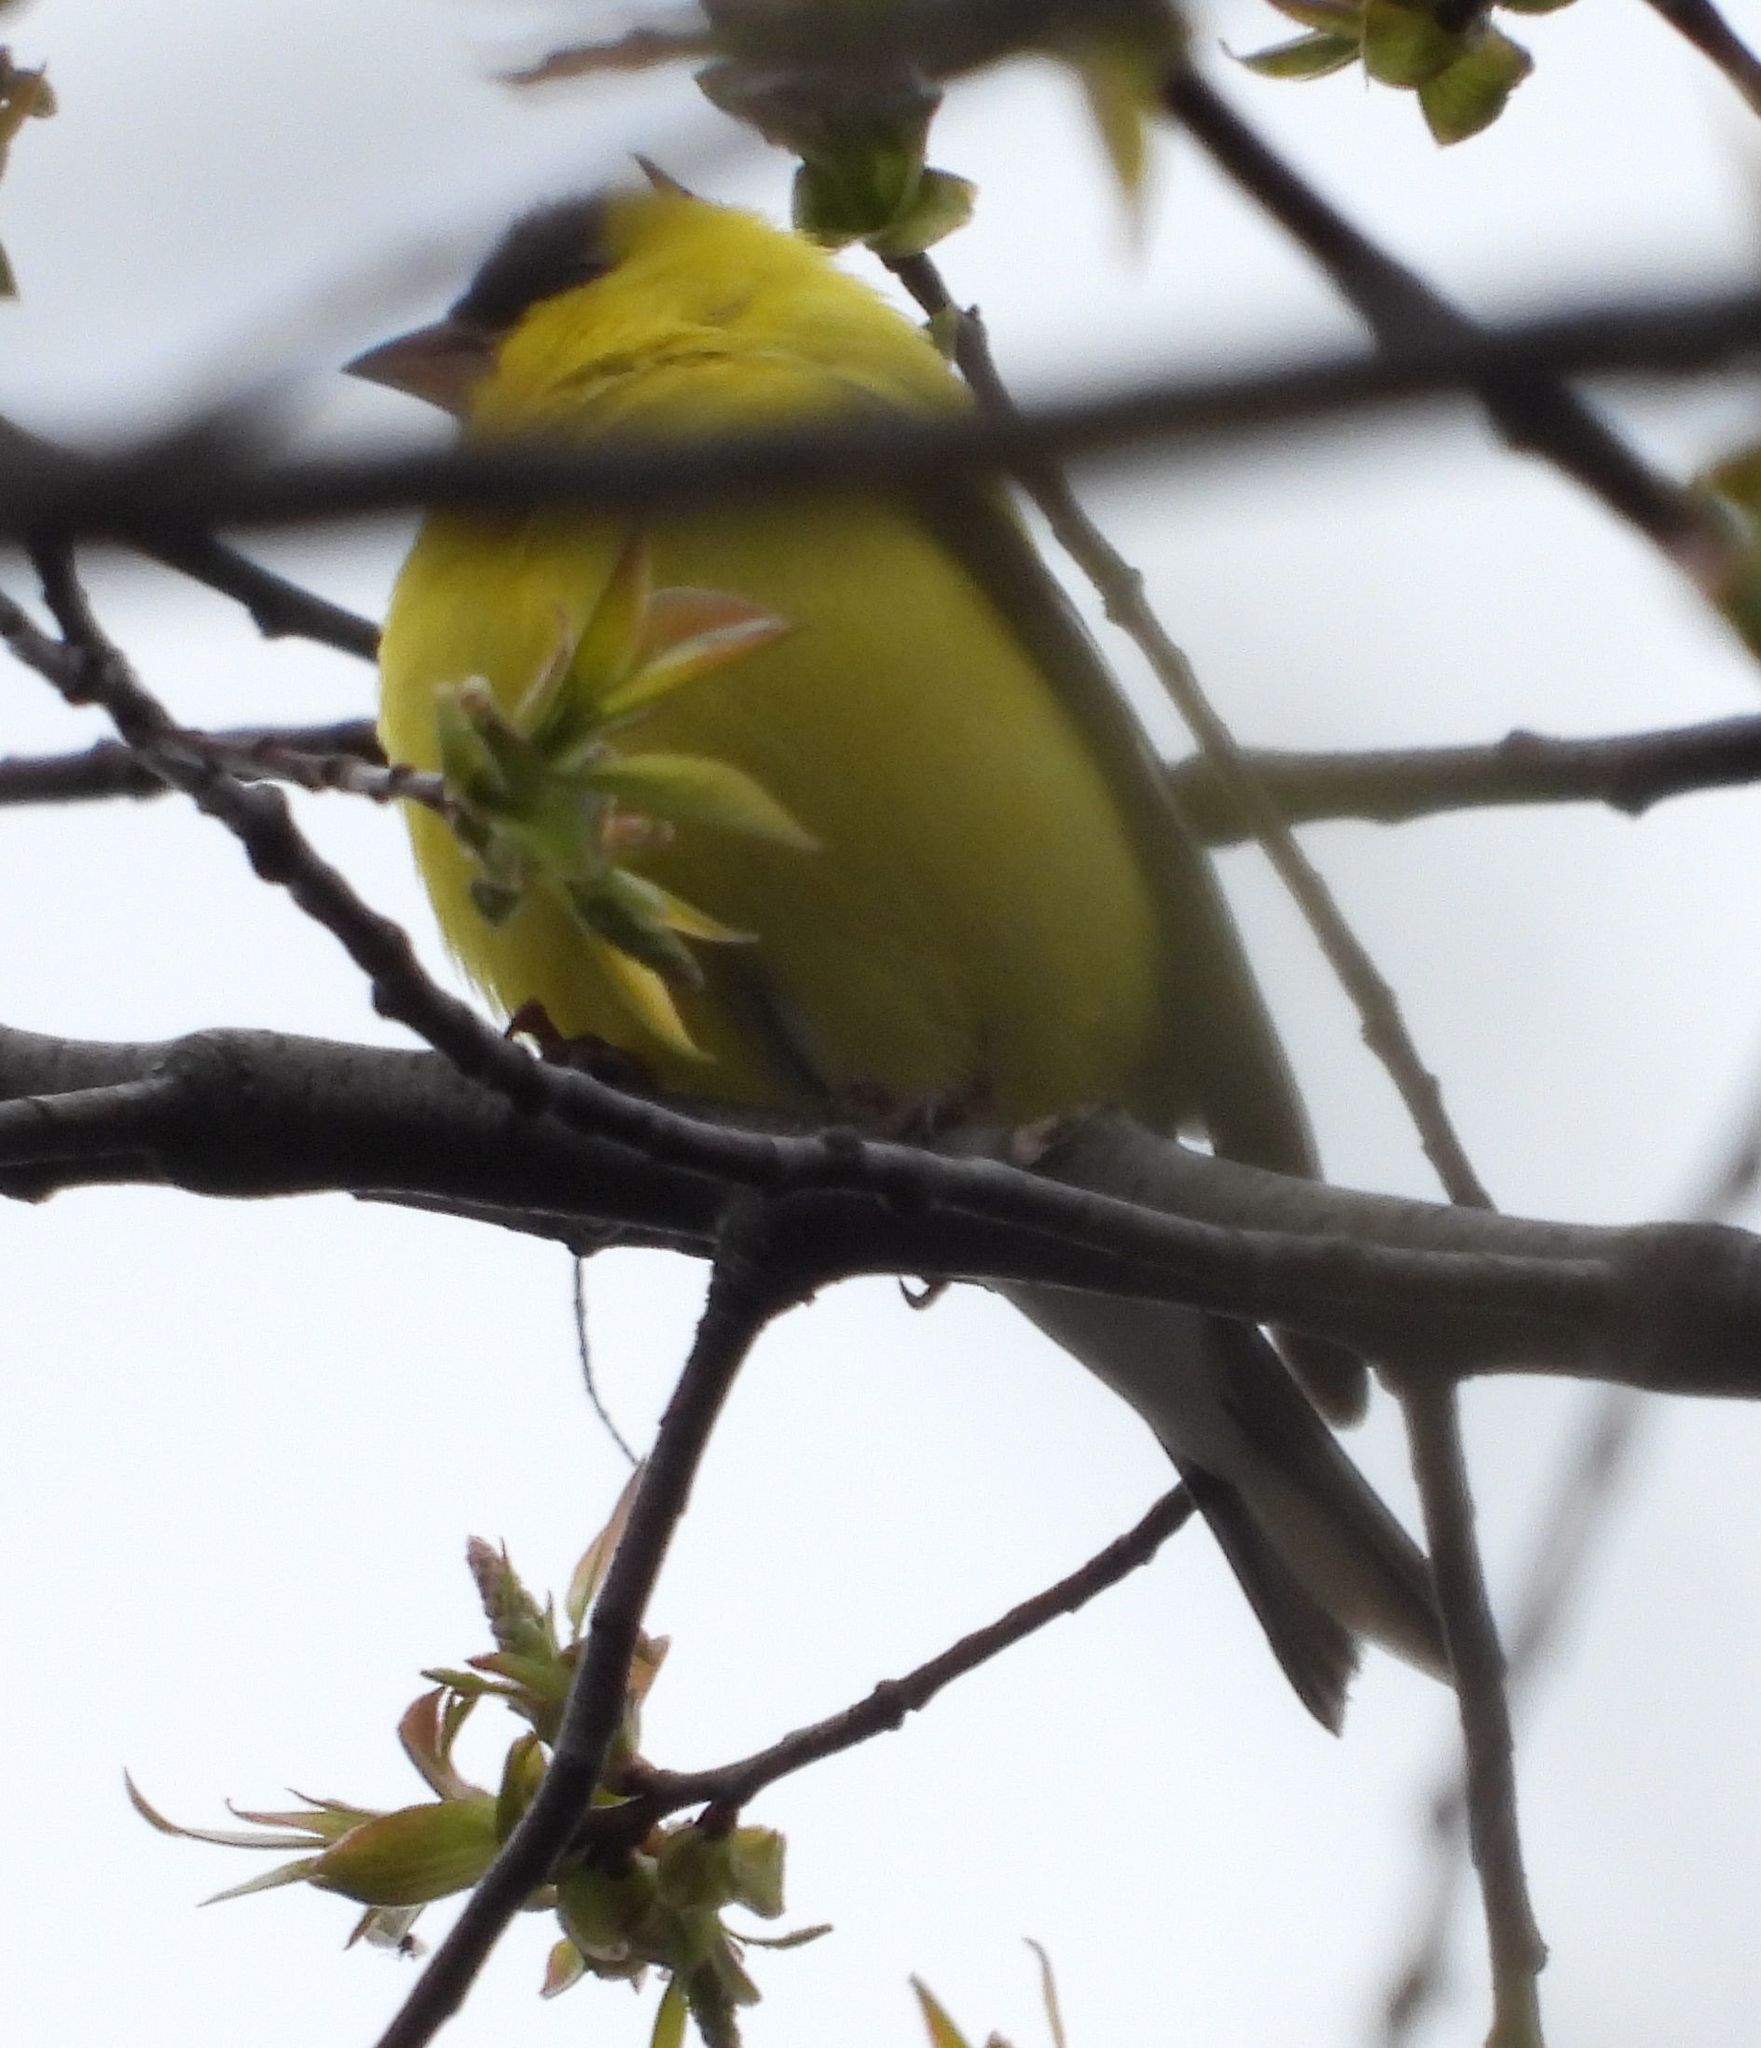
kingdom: Animalia
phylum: Chordata
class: Aves
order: Passeriformes
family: Fringillidae
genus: Spinus
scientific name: Spinus tristis
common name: American goldfinch
